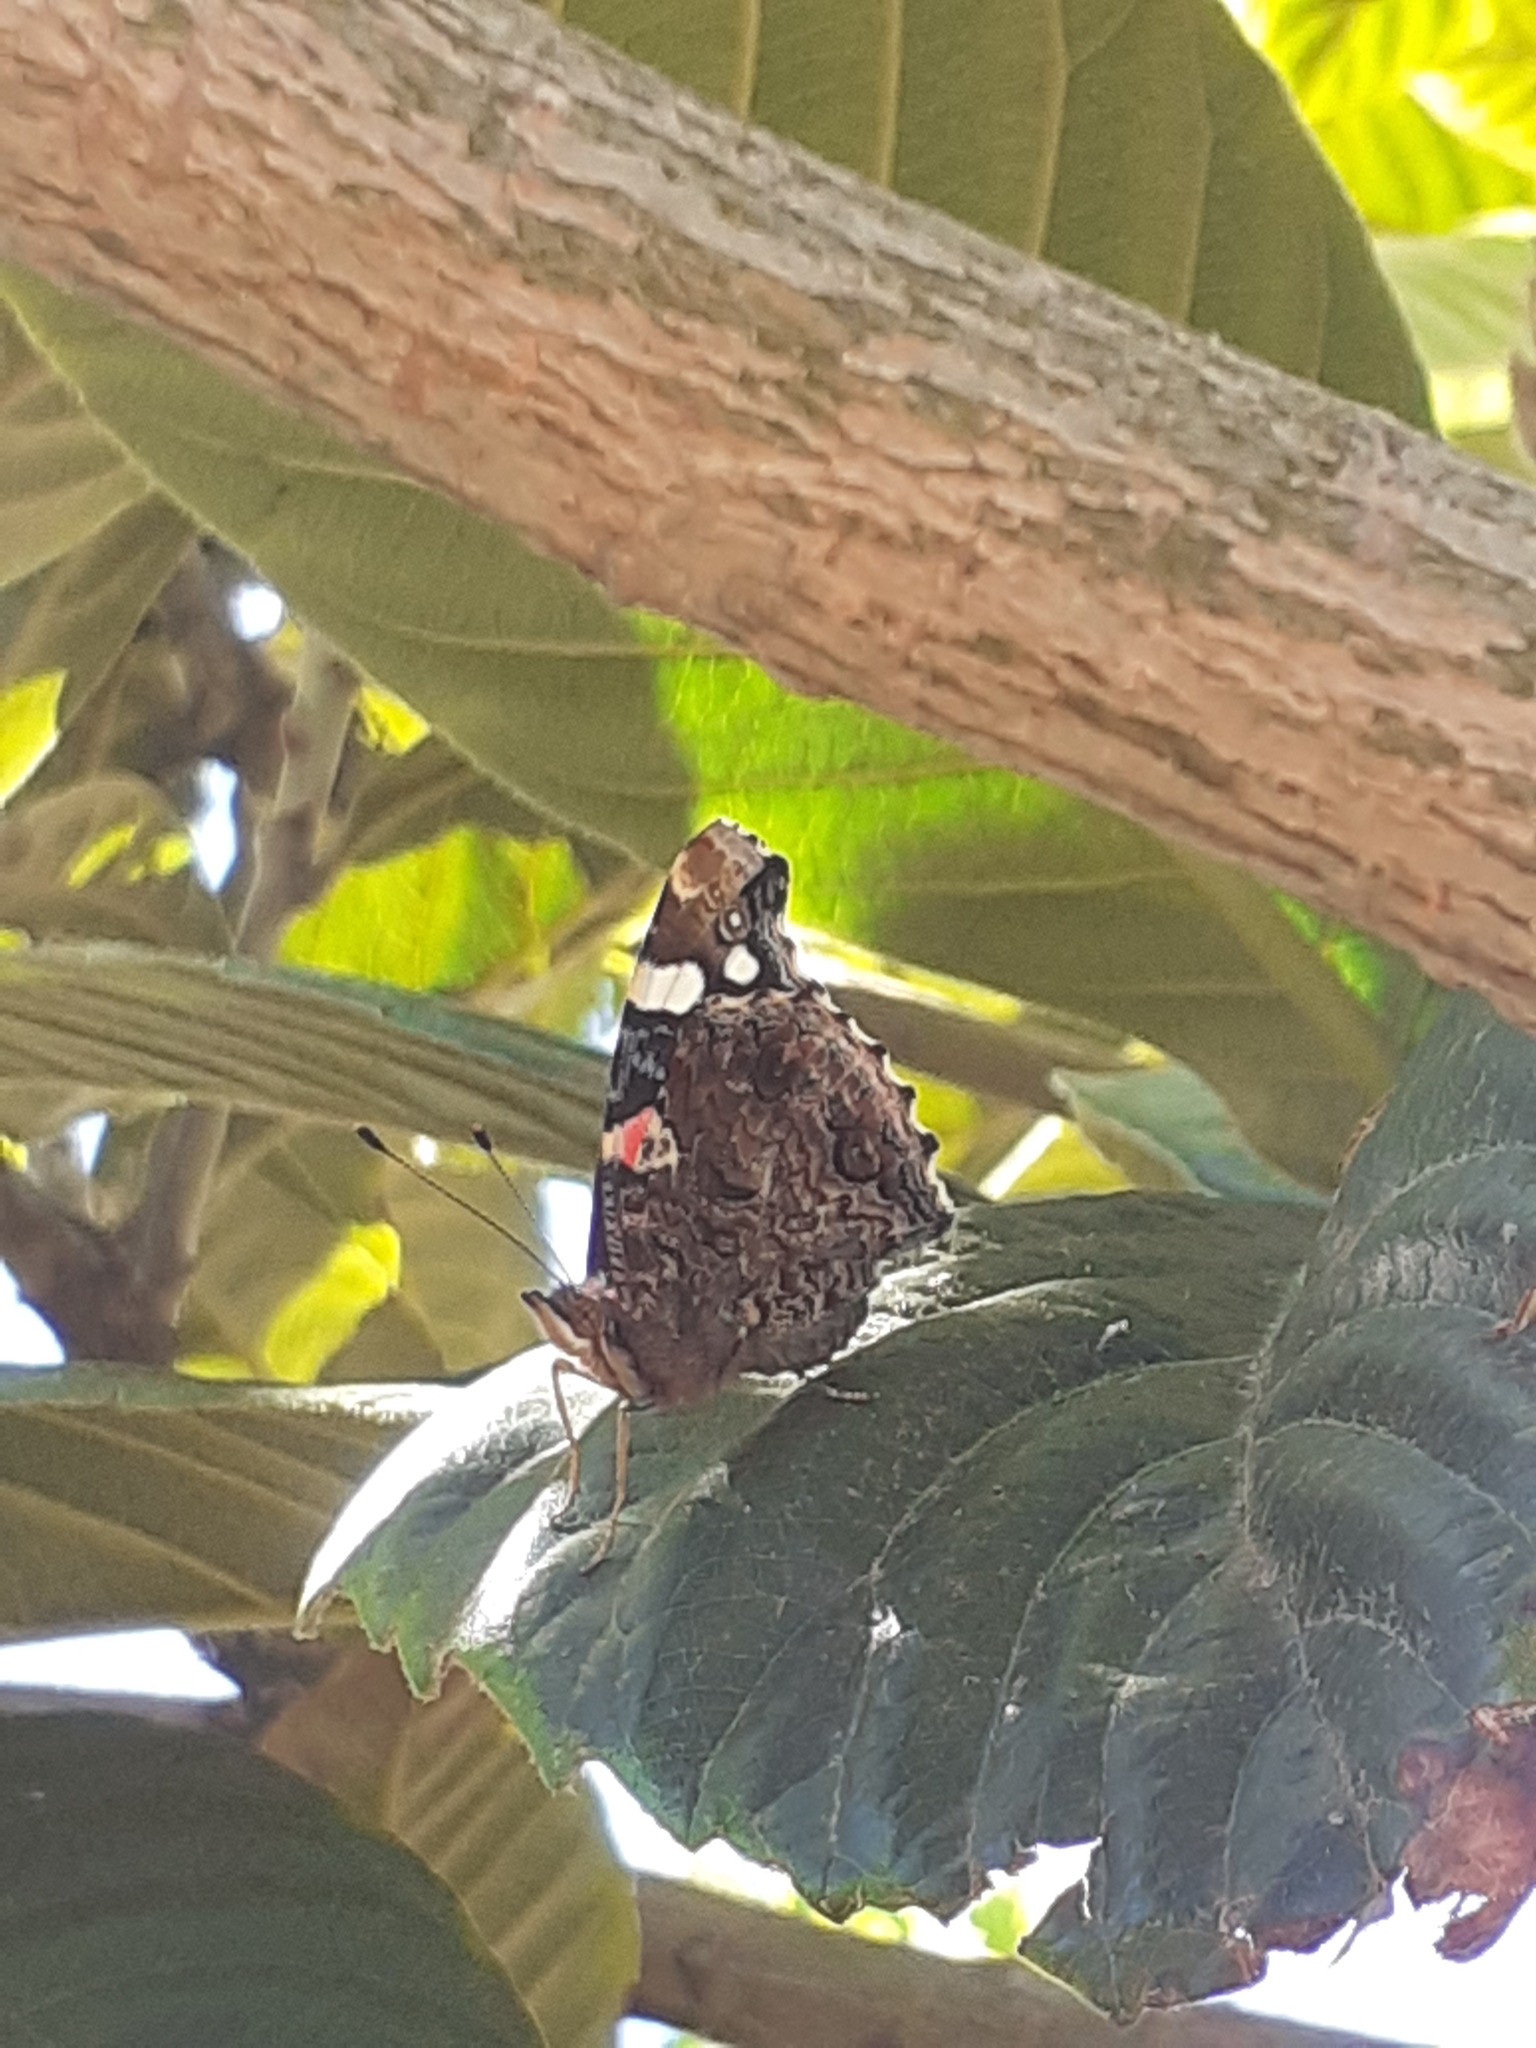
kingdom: Animalia
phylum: Arthropoda
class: Insecta
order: Lepidoptera
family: Nymphalidae
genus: Vanessa
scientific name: Vanessa atalanta
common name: Red admiral
